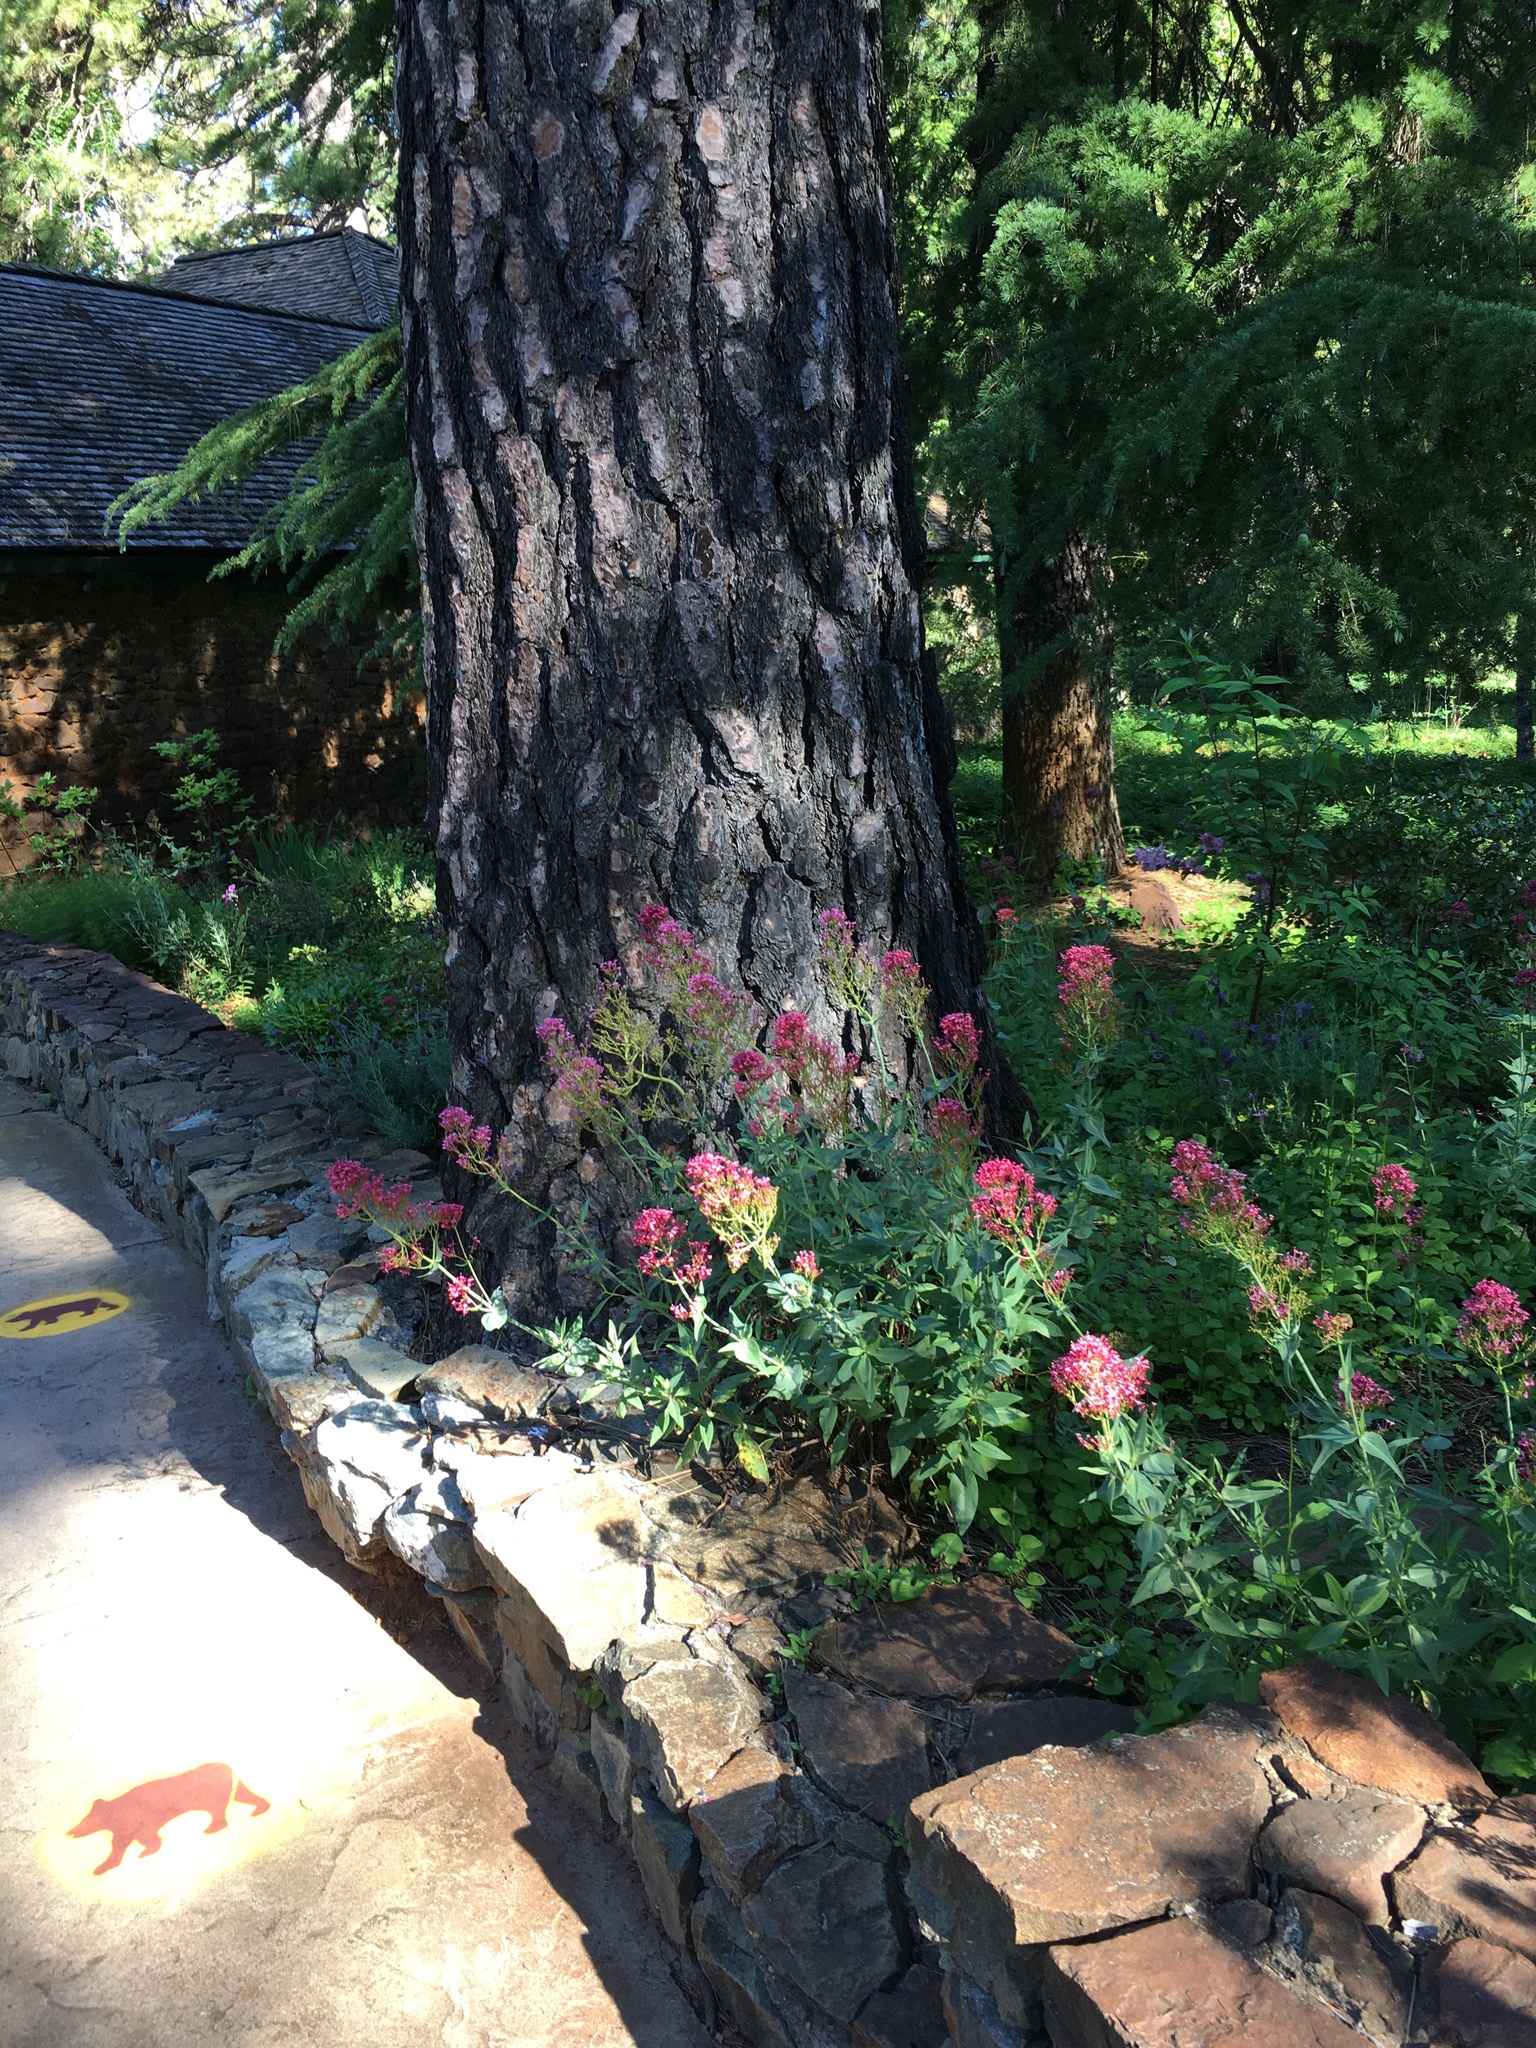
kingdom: Animalia
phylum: Arthropoda
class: Insecta
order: Lepidoptera
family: Papilionidae
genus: Papilio
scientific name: Papilio eurymedon
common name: Pale tiger swallowtail
